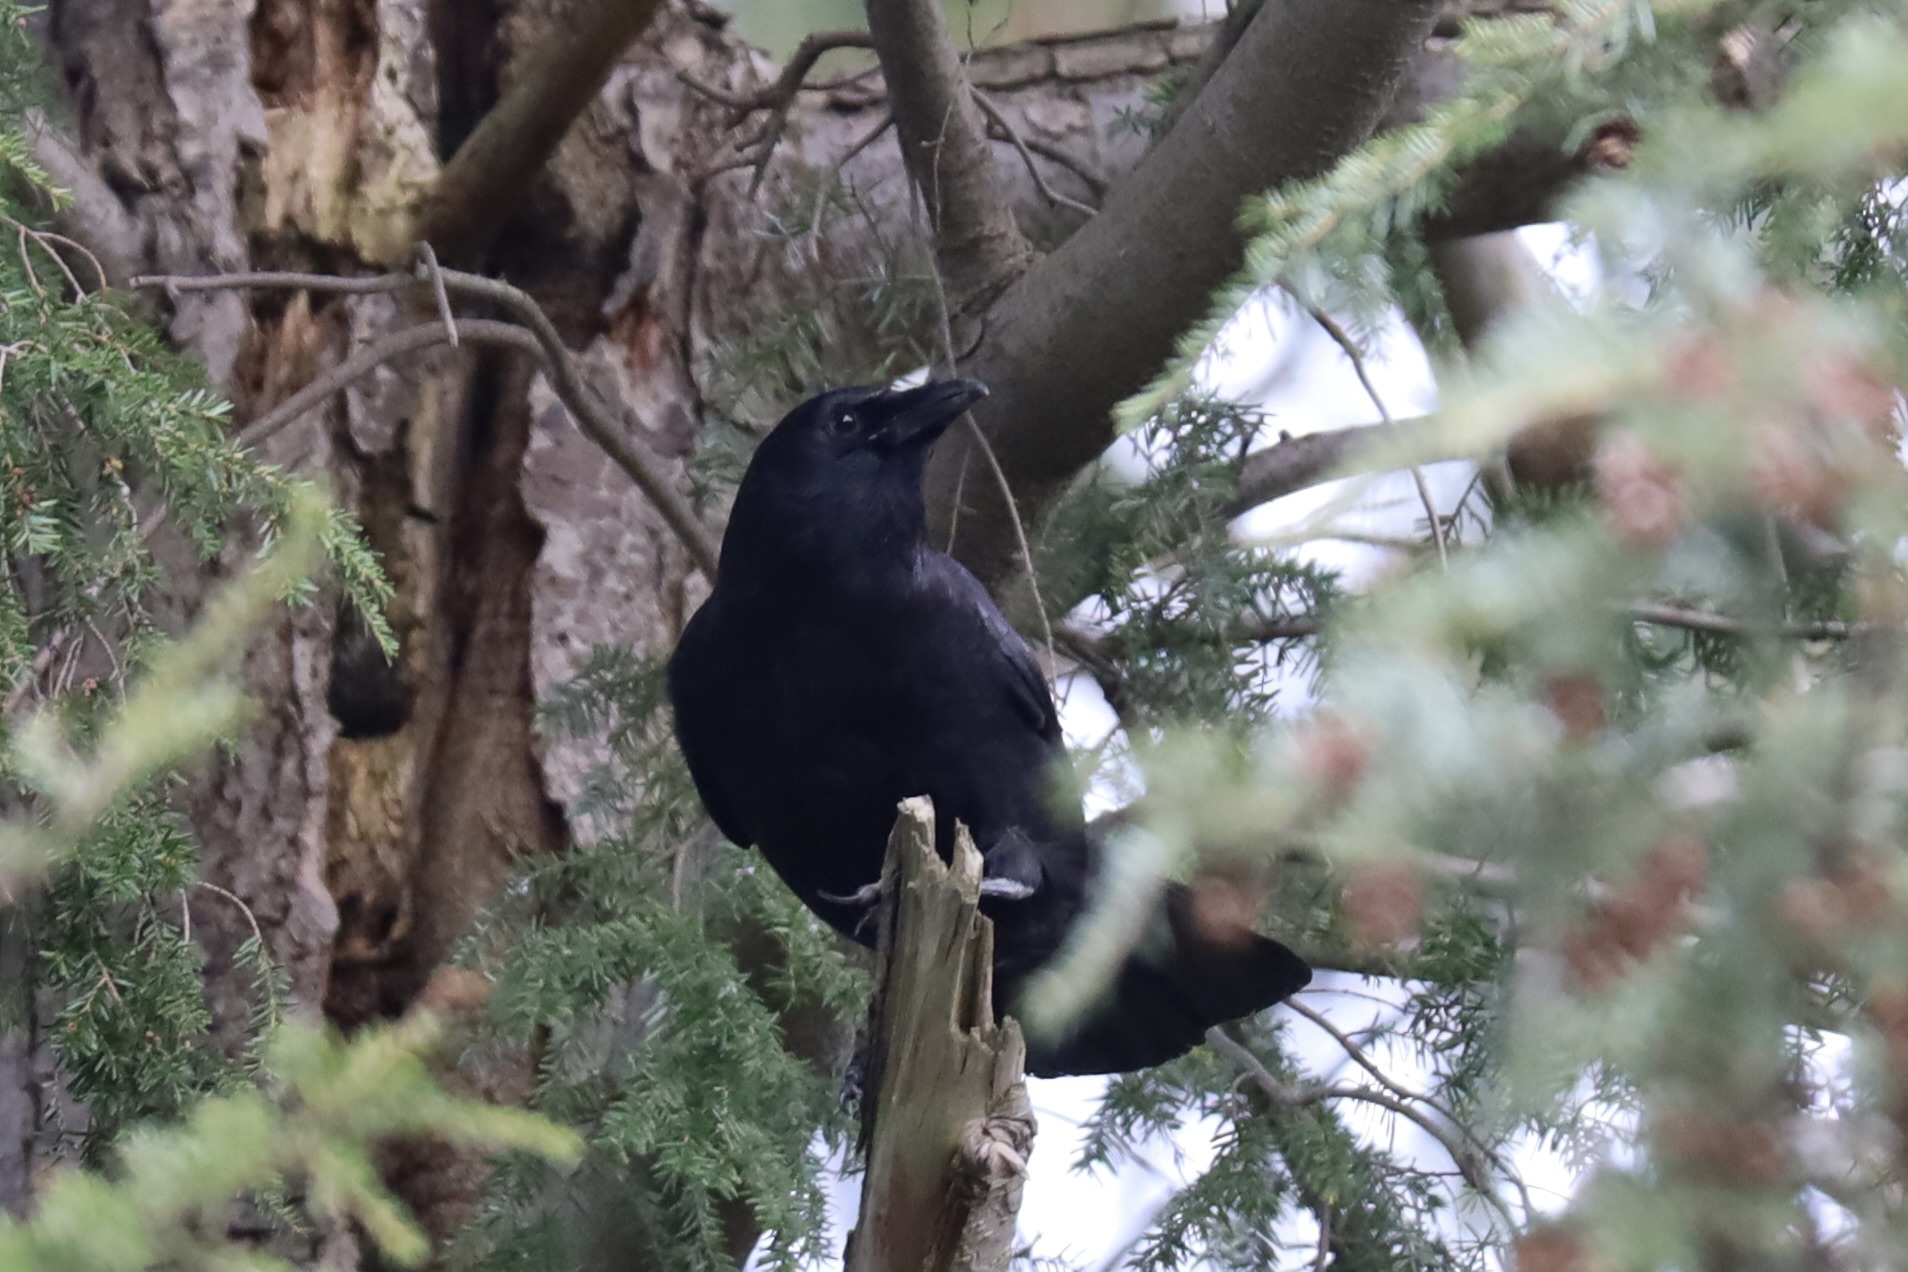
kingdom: Animalia
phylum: Chordata
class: Aves
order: Passeriformes
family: Corvidae
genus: Corvus
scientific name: Corvus brachyrhynchos
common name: American crow
